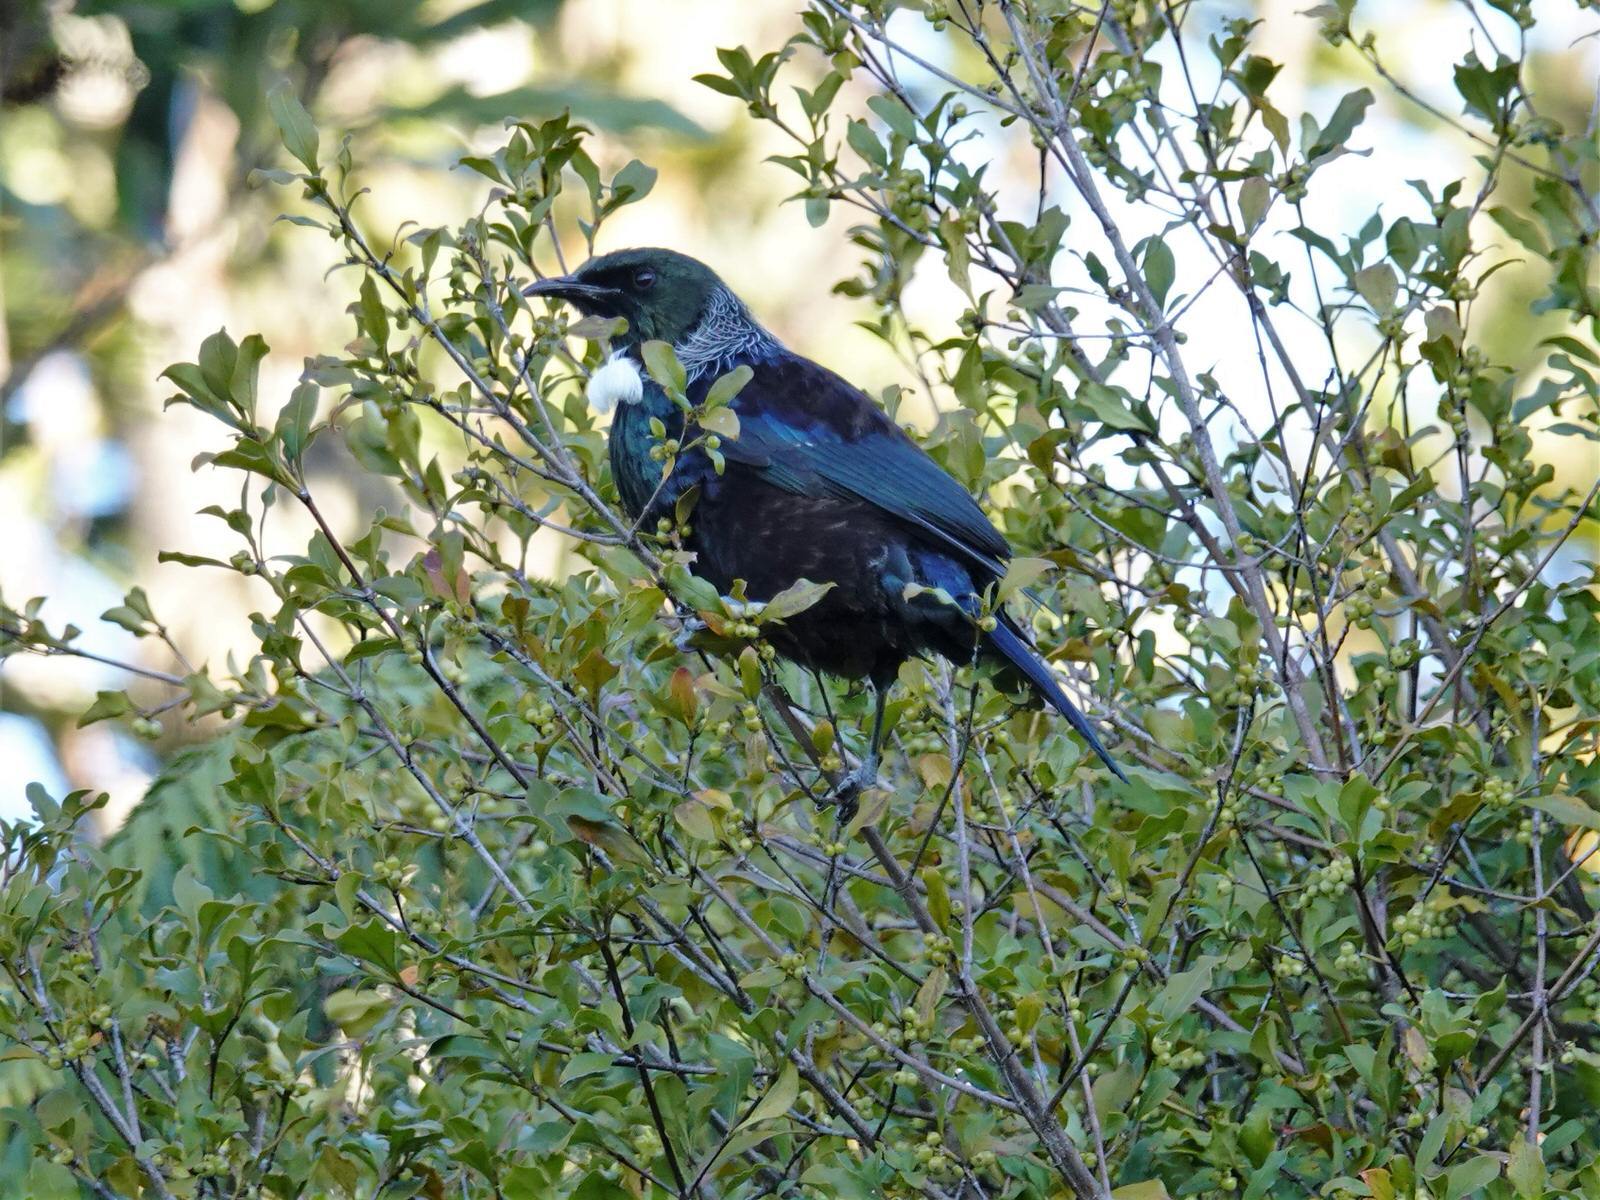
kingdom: Animalia
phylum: Chordata
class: Aves
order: Passeriformes
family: Meliphagidae
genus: Prosthemadera
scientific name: Prosthemadera novaeseelandiae
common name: Tui
